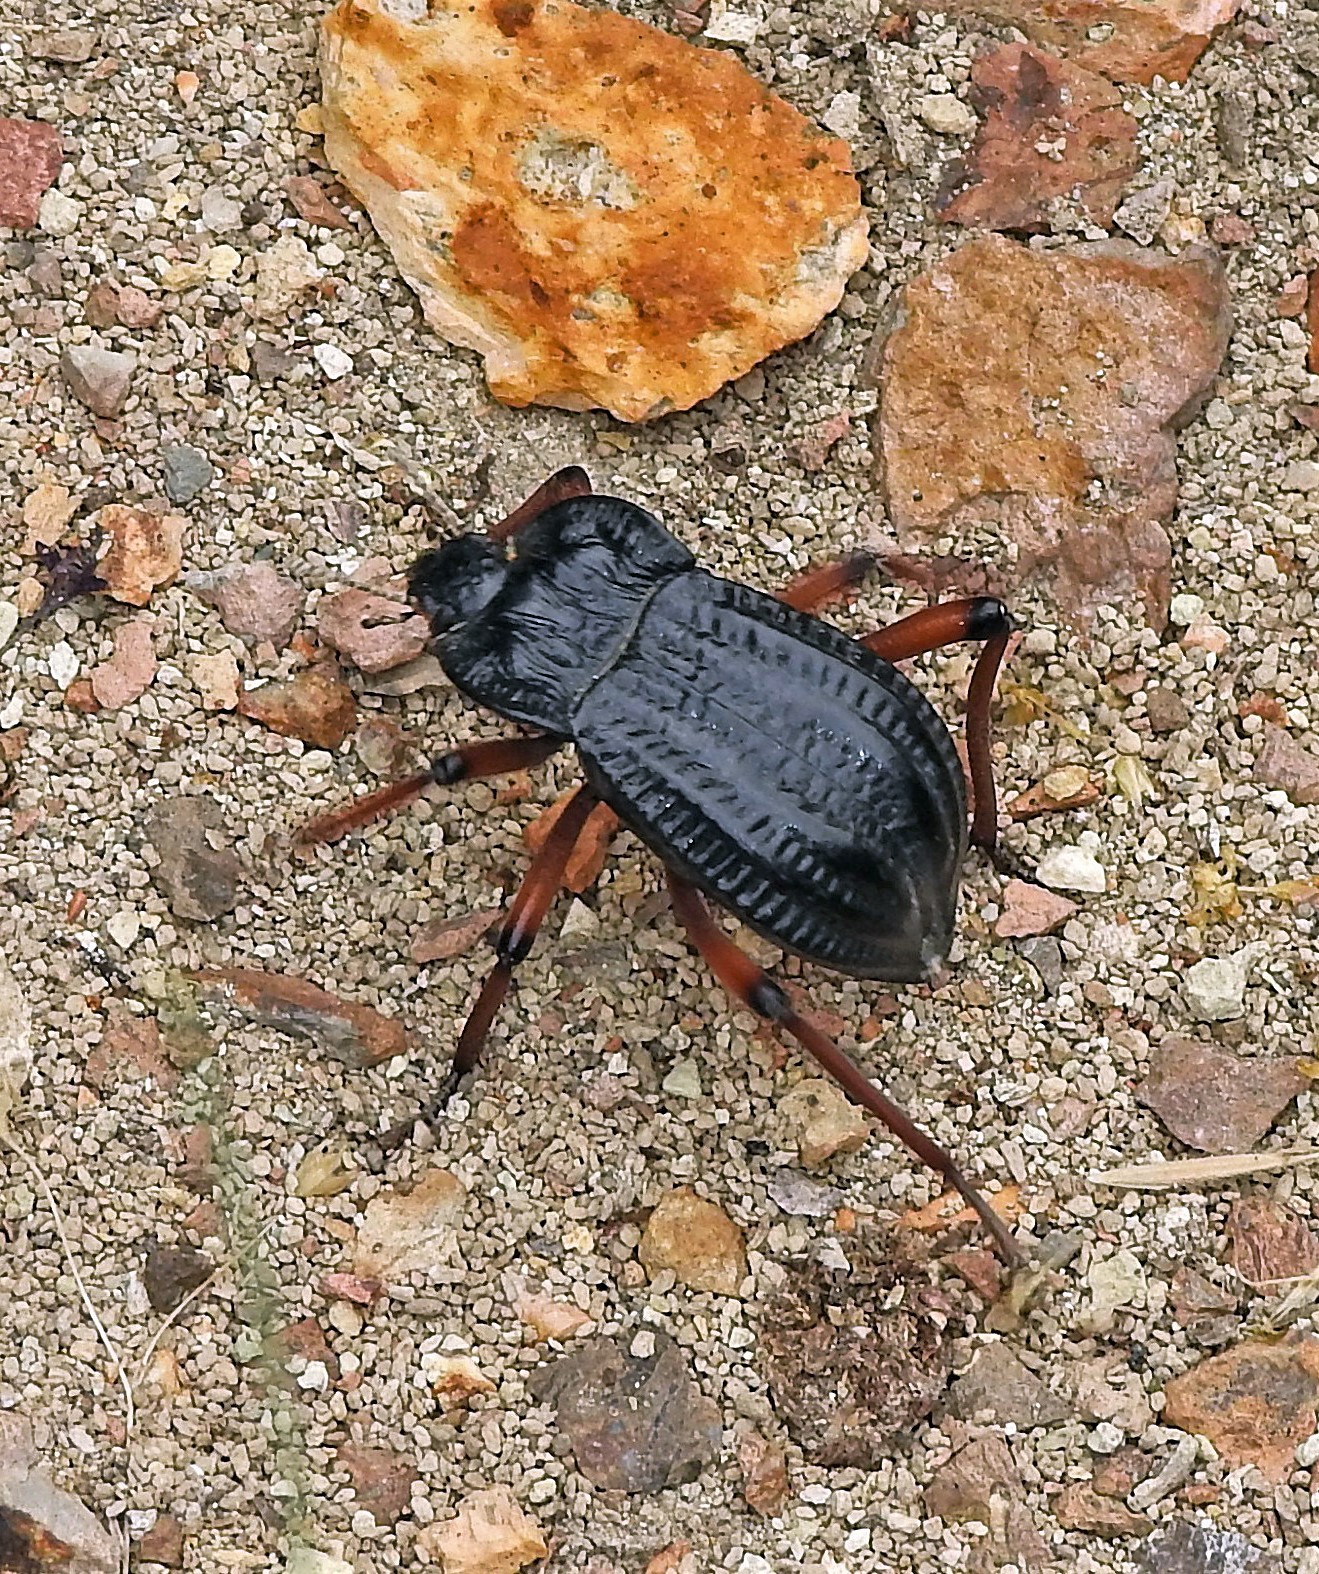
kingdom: Animalia
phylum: Arthropoda
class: Insecta
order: Coleoptera
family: Tenebrionidae
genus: Epipedonota
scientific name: Epipedonota
